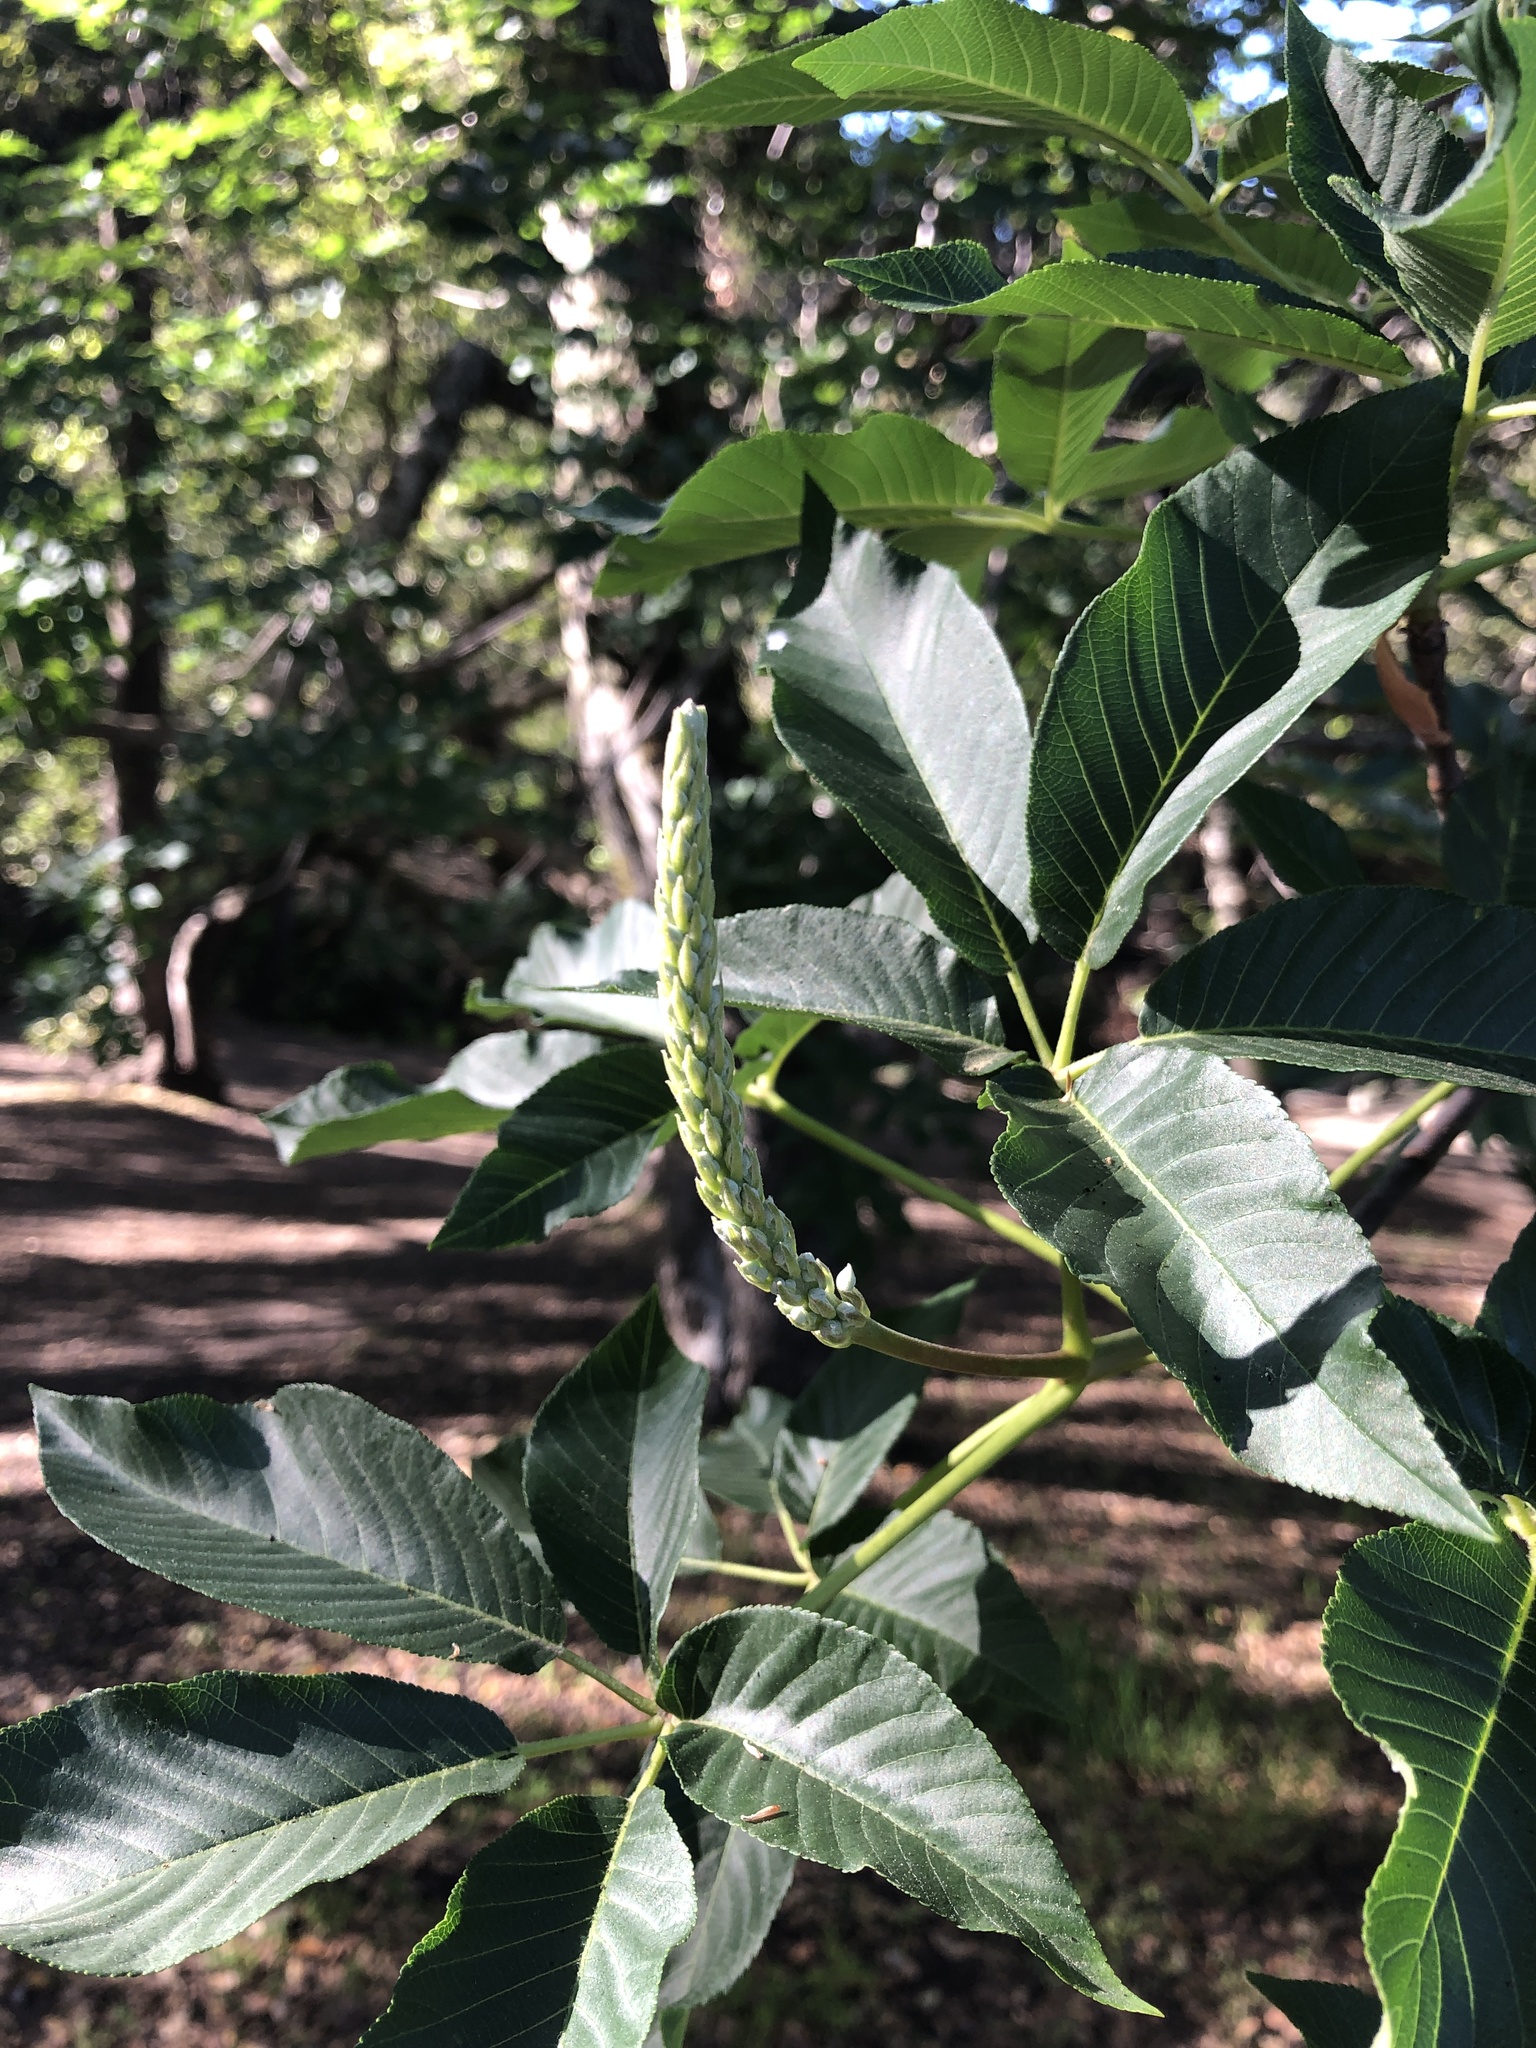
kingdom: Plantae
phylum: Tracheophyta
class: Magnoliopsida
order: Sapindales
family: Sapindaceae
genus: Aesculus
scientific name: Aesculus californica
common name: California buckeye
